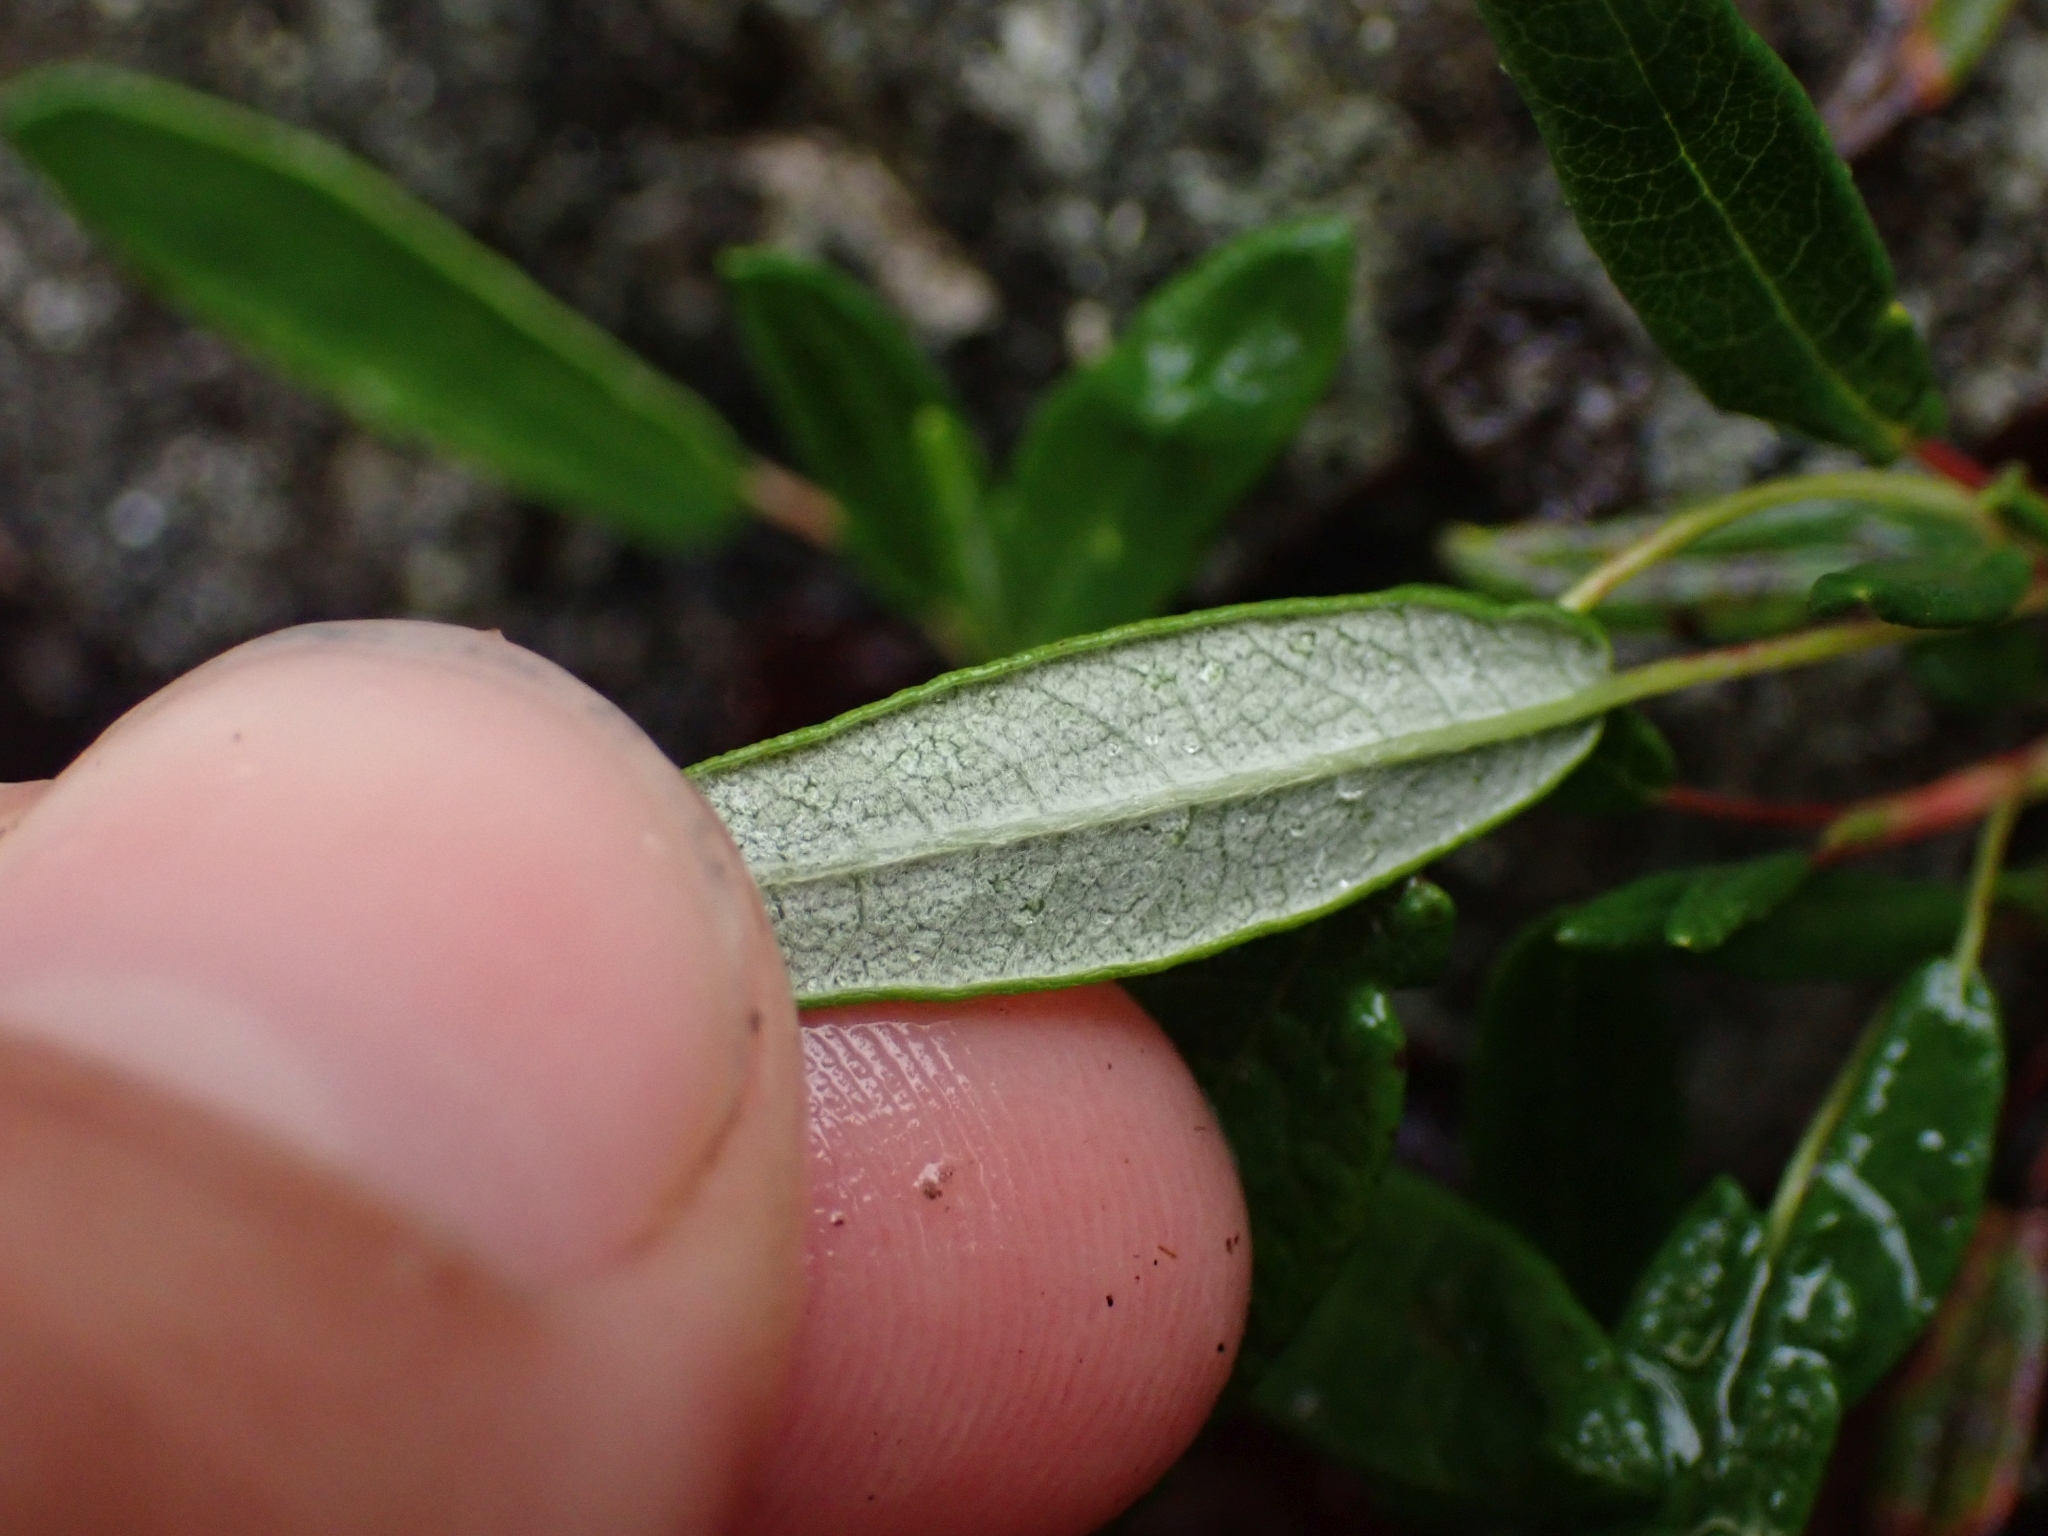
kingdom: Plantae
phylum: Tracheophyta
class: Magnoliopsida
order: Rosales
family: Rosaceae
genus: Dryas
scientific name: Dryas integrifolia
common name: Entire-leaved mountain avens
